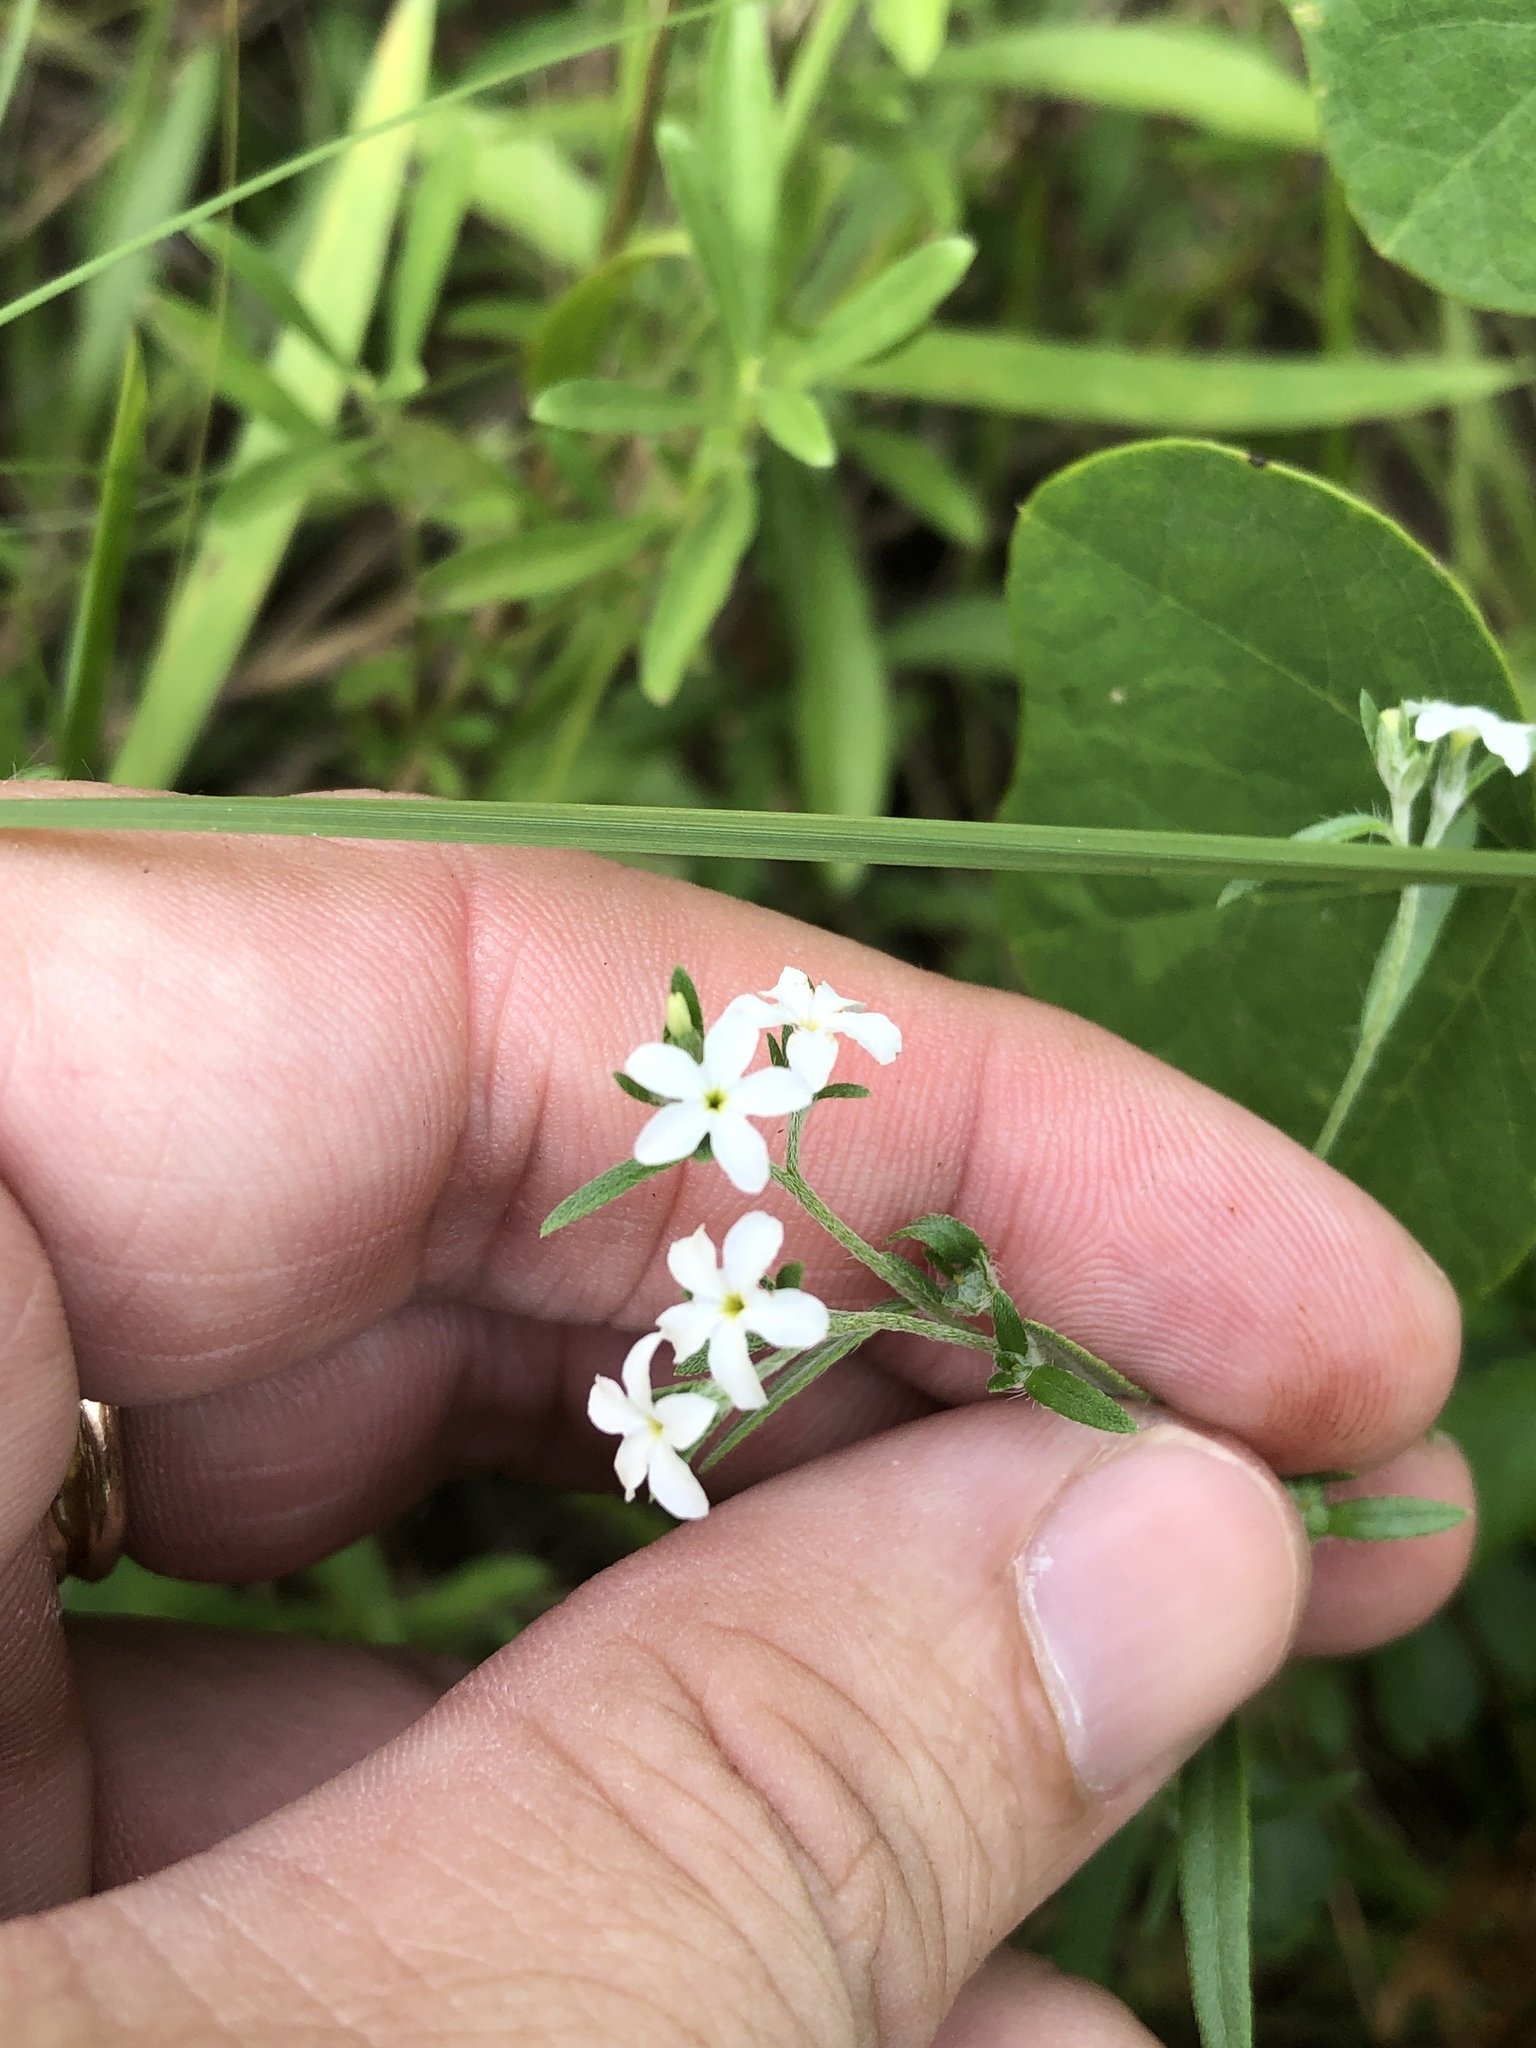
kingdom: Plantae
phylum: Tracheophyta
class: Magnoliopsida
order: Boraginales
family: Heliotropiaceae
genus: Euploca
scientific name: Euploca tenella
